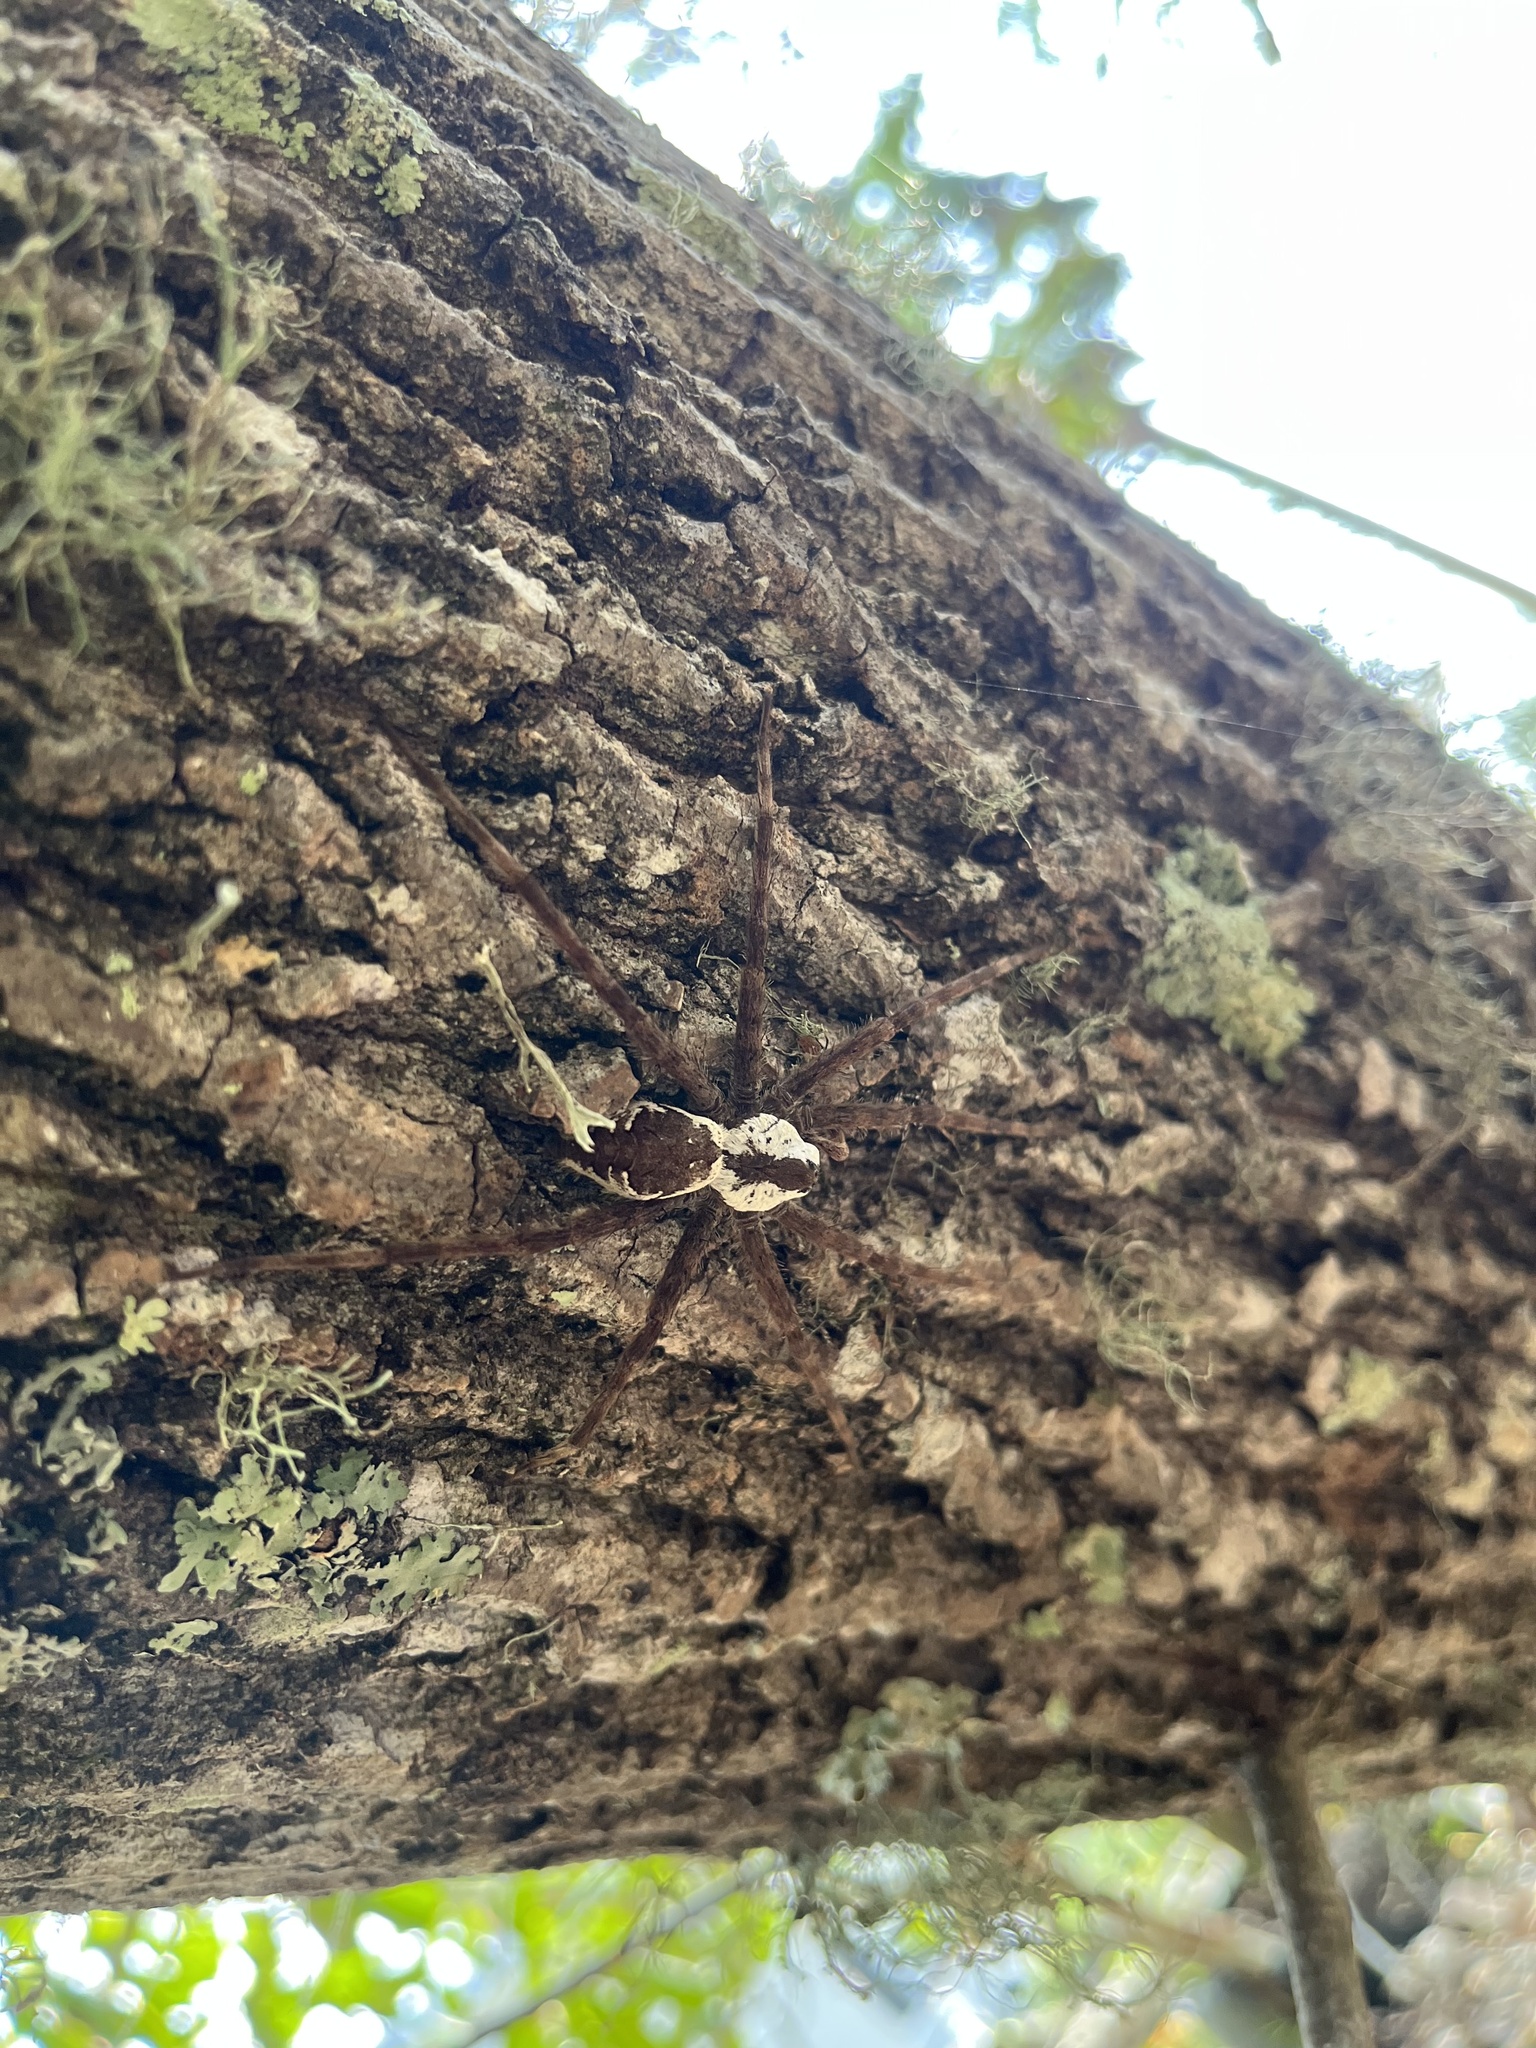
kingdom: Animalia
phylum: Arthropoda
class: Arachnida
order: Araneae
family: Pisauridae
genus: Dolomedes
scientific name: Dolomedes albineus
